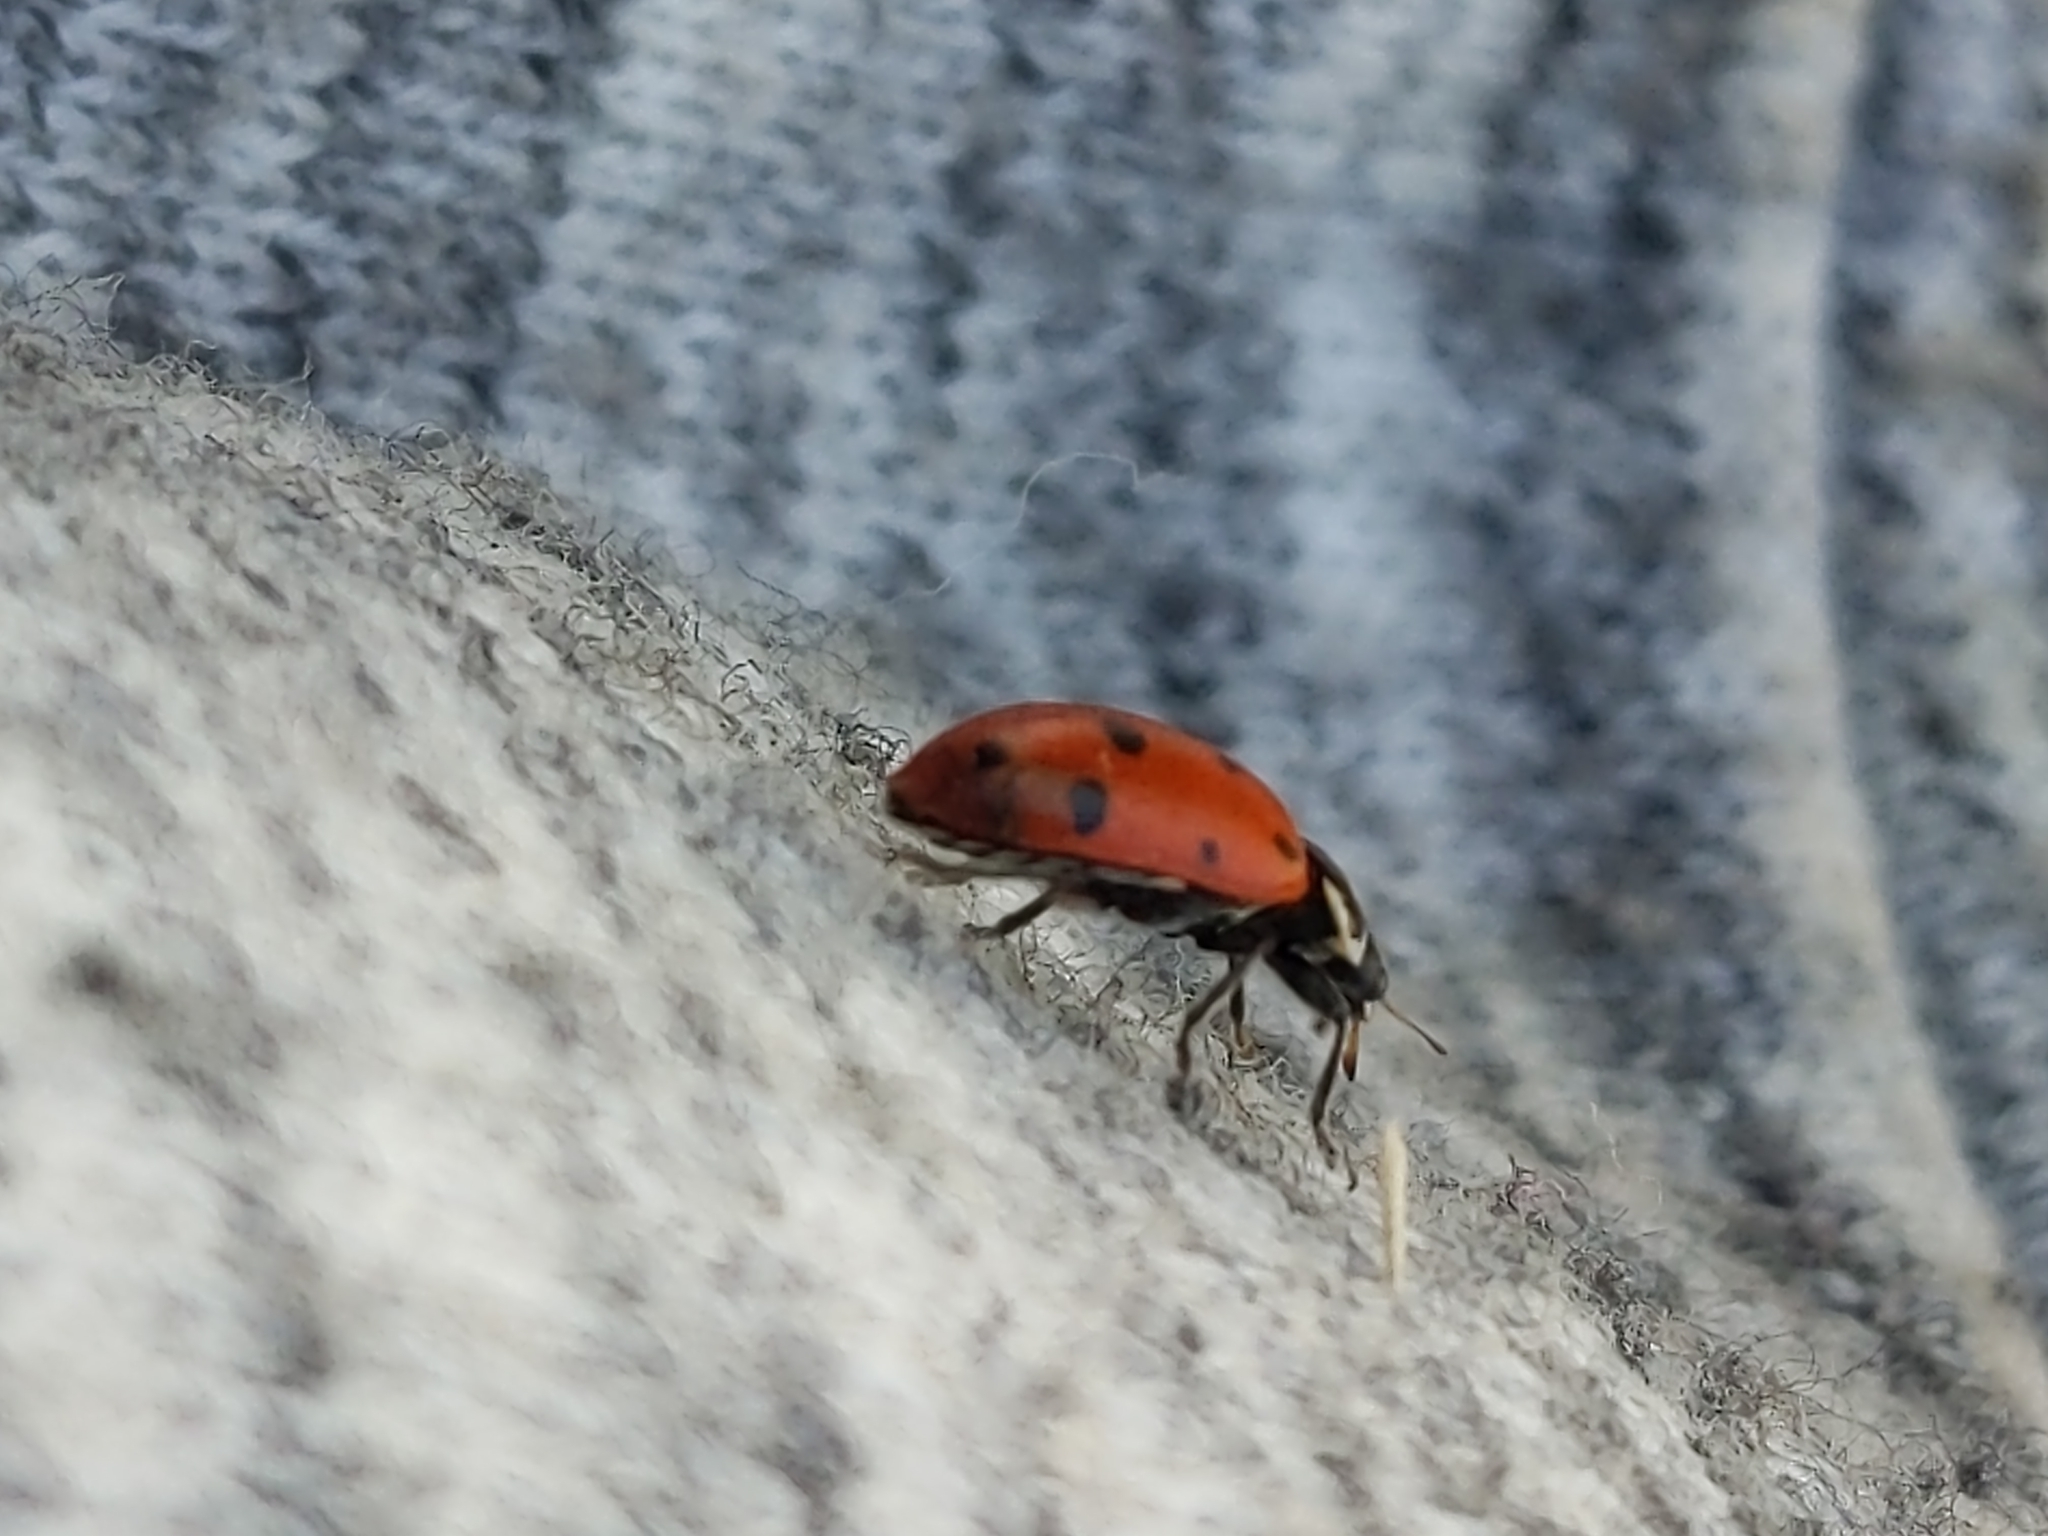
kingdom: Animalia
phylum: Arthropoda
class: Insecta
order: Coleoptera
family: Coccinellidae
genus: Hippodamia
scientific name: Hippodamia convergens
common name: Convergent lady beetle
